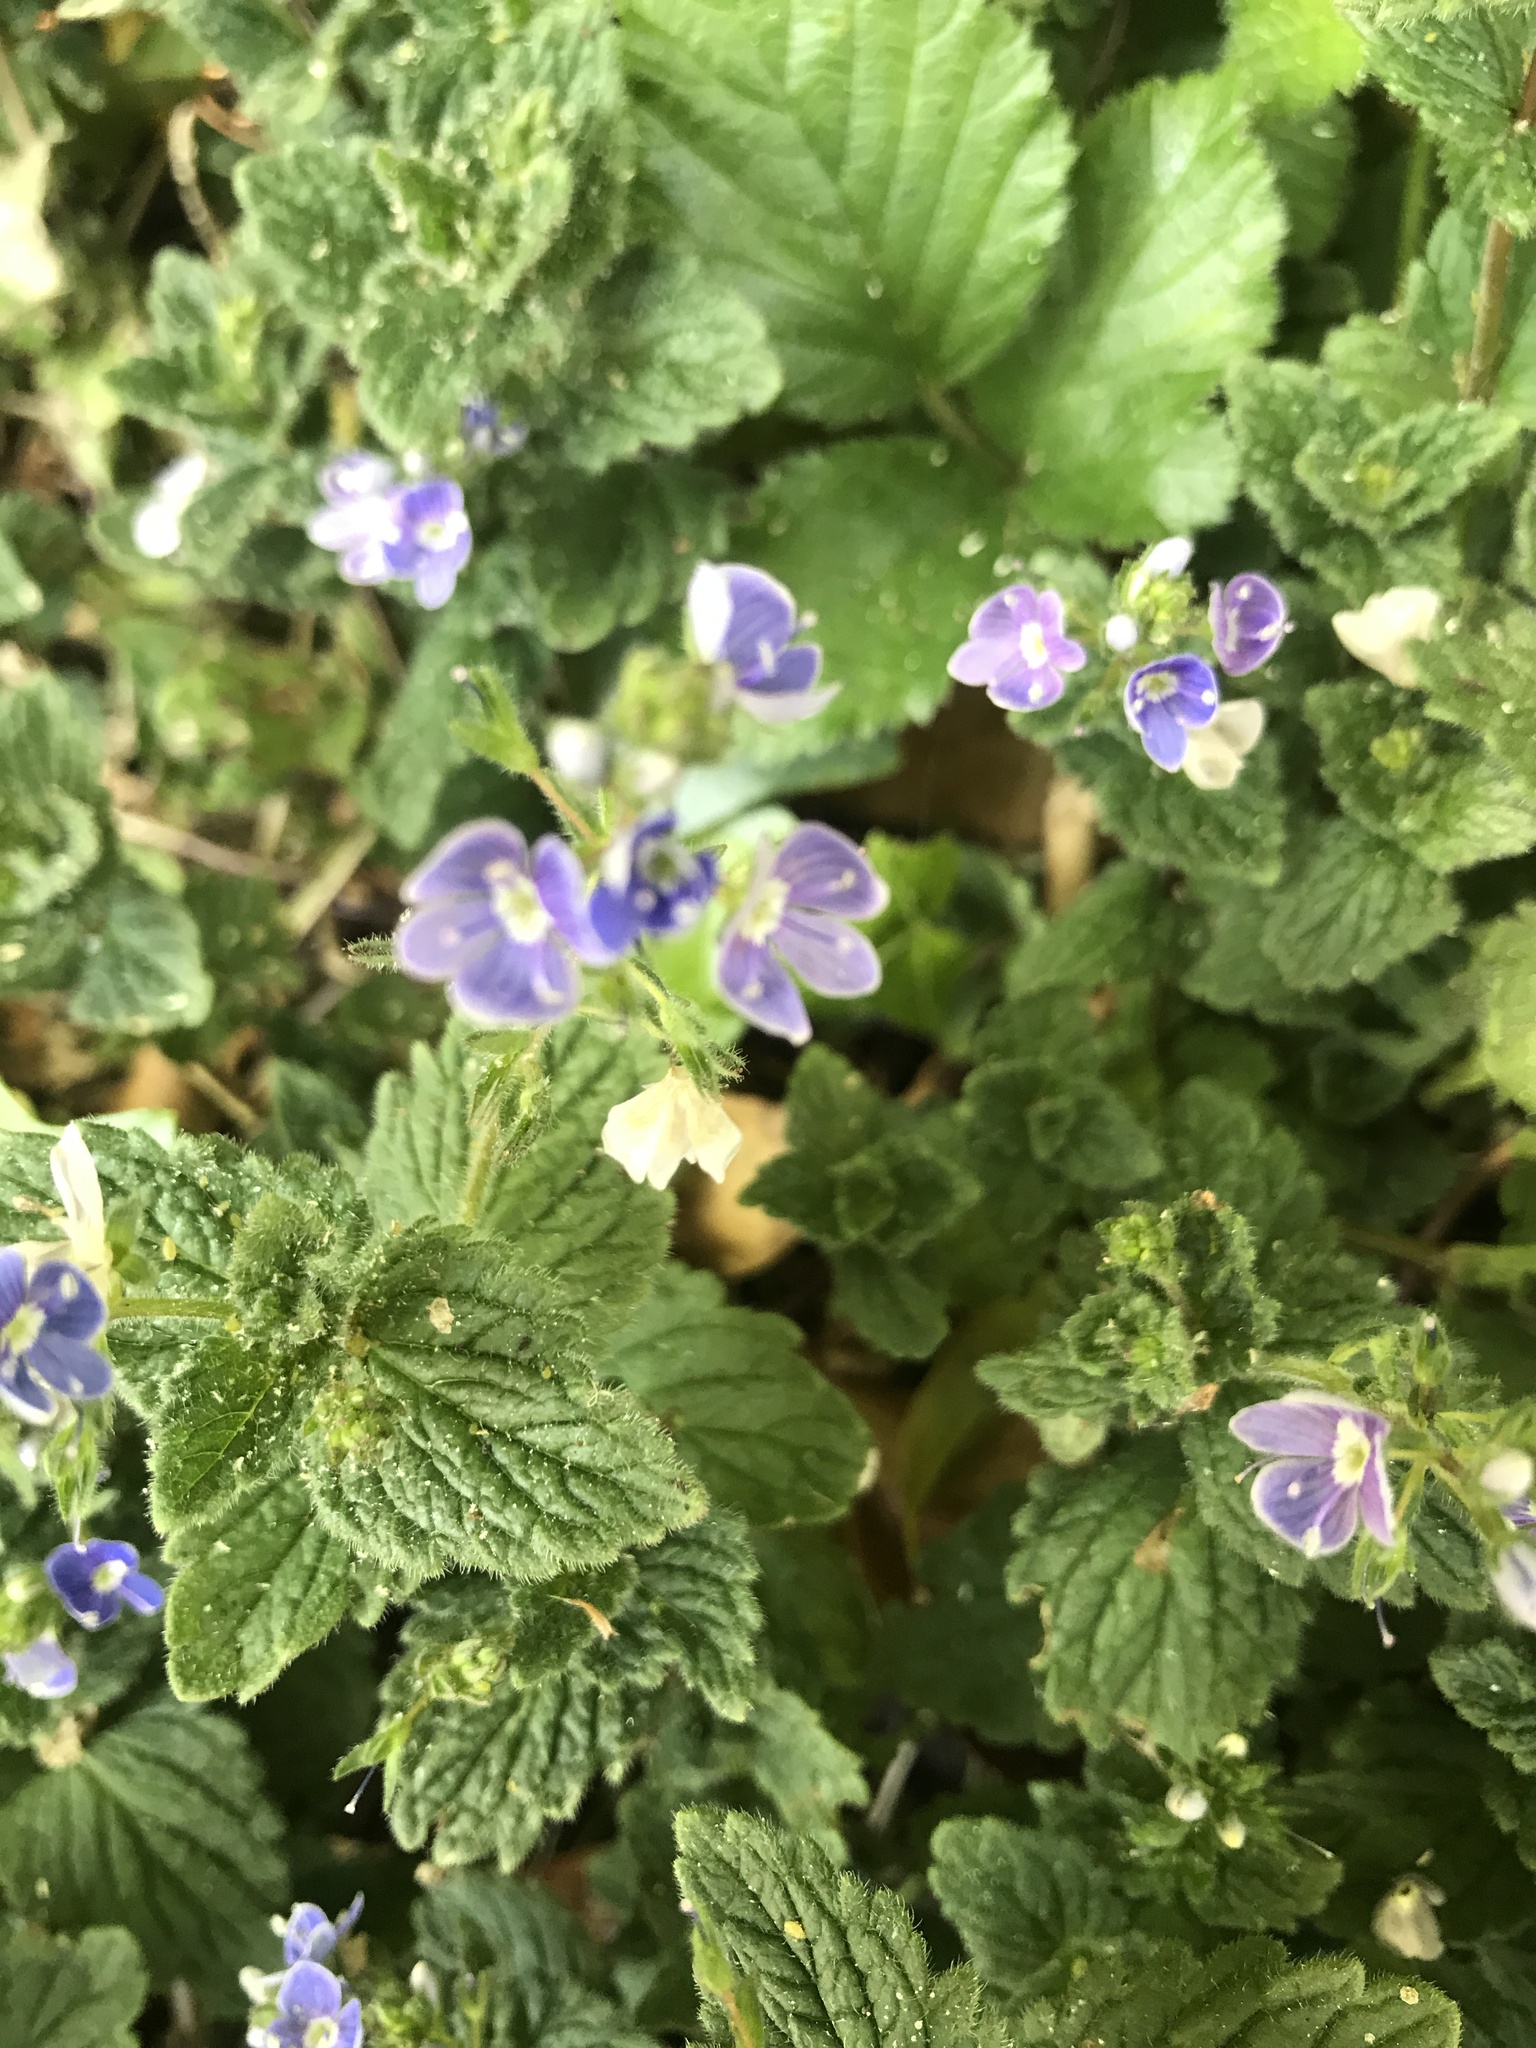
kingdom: Plantae
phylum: Tracheophyta
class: Magnoliopsida
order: Lamiales
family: Plantaginaceae
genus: Veronica
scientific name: Veronica chamaedrys
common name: Germander speedwell
